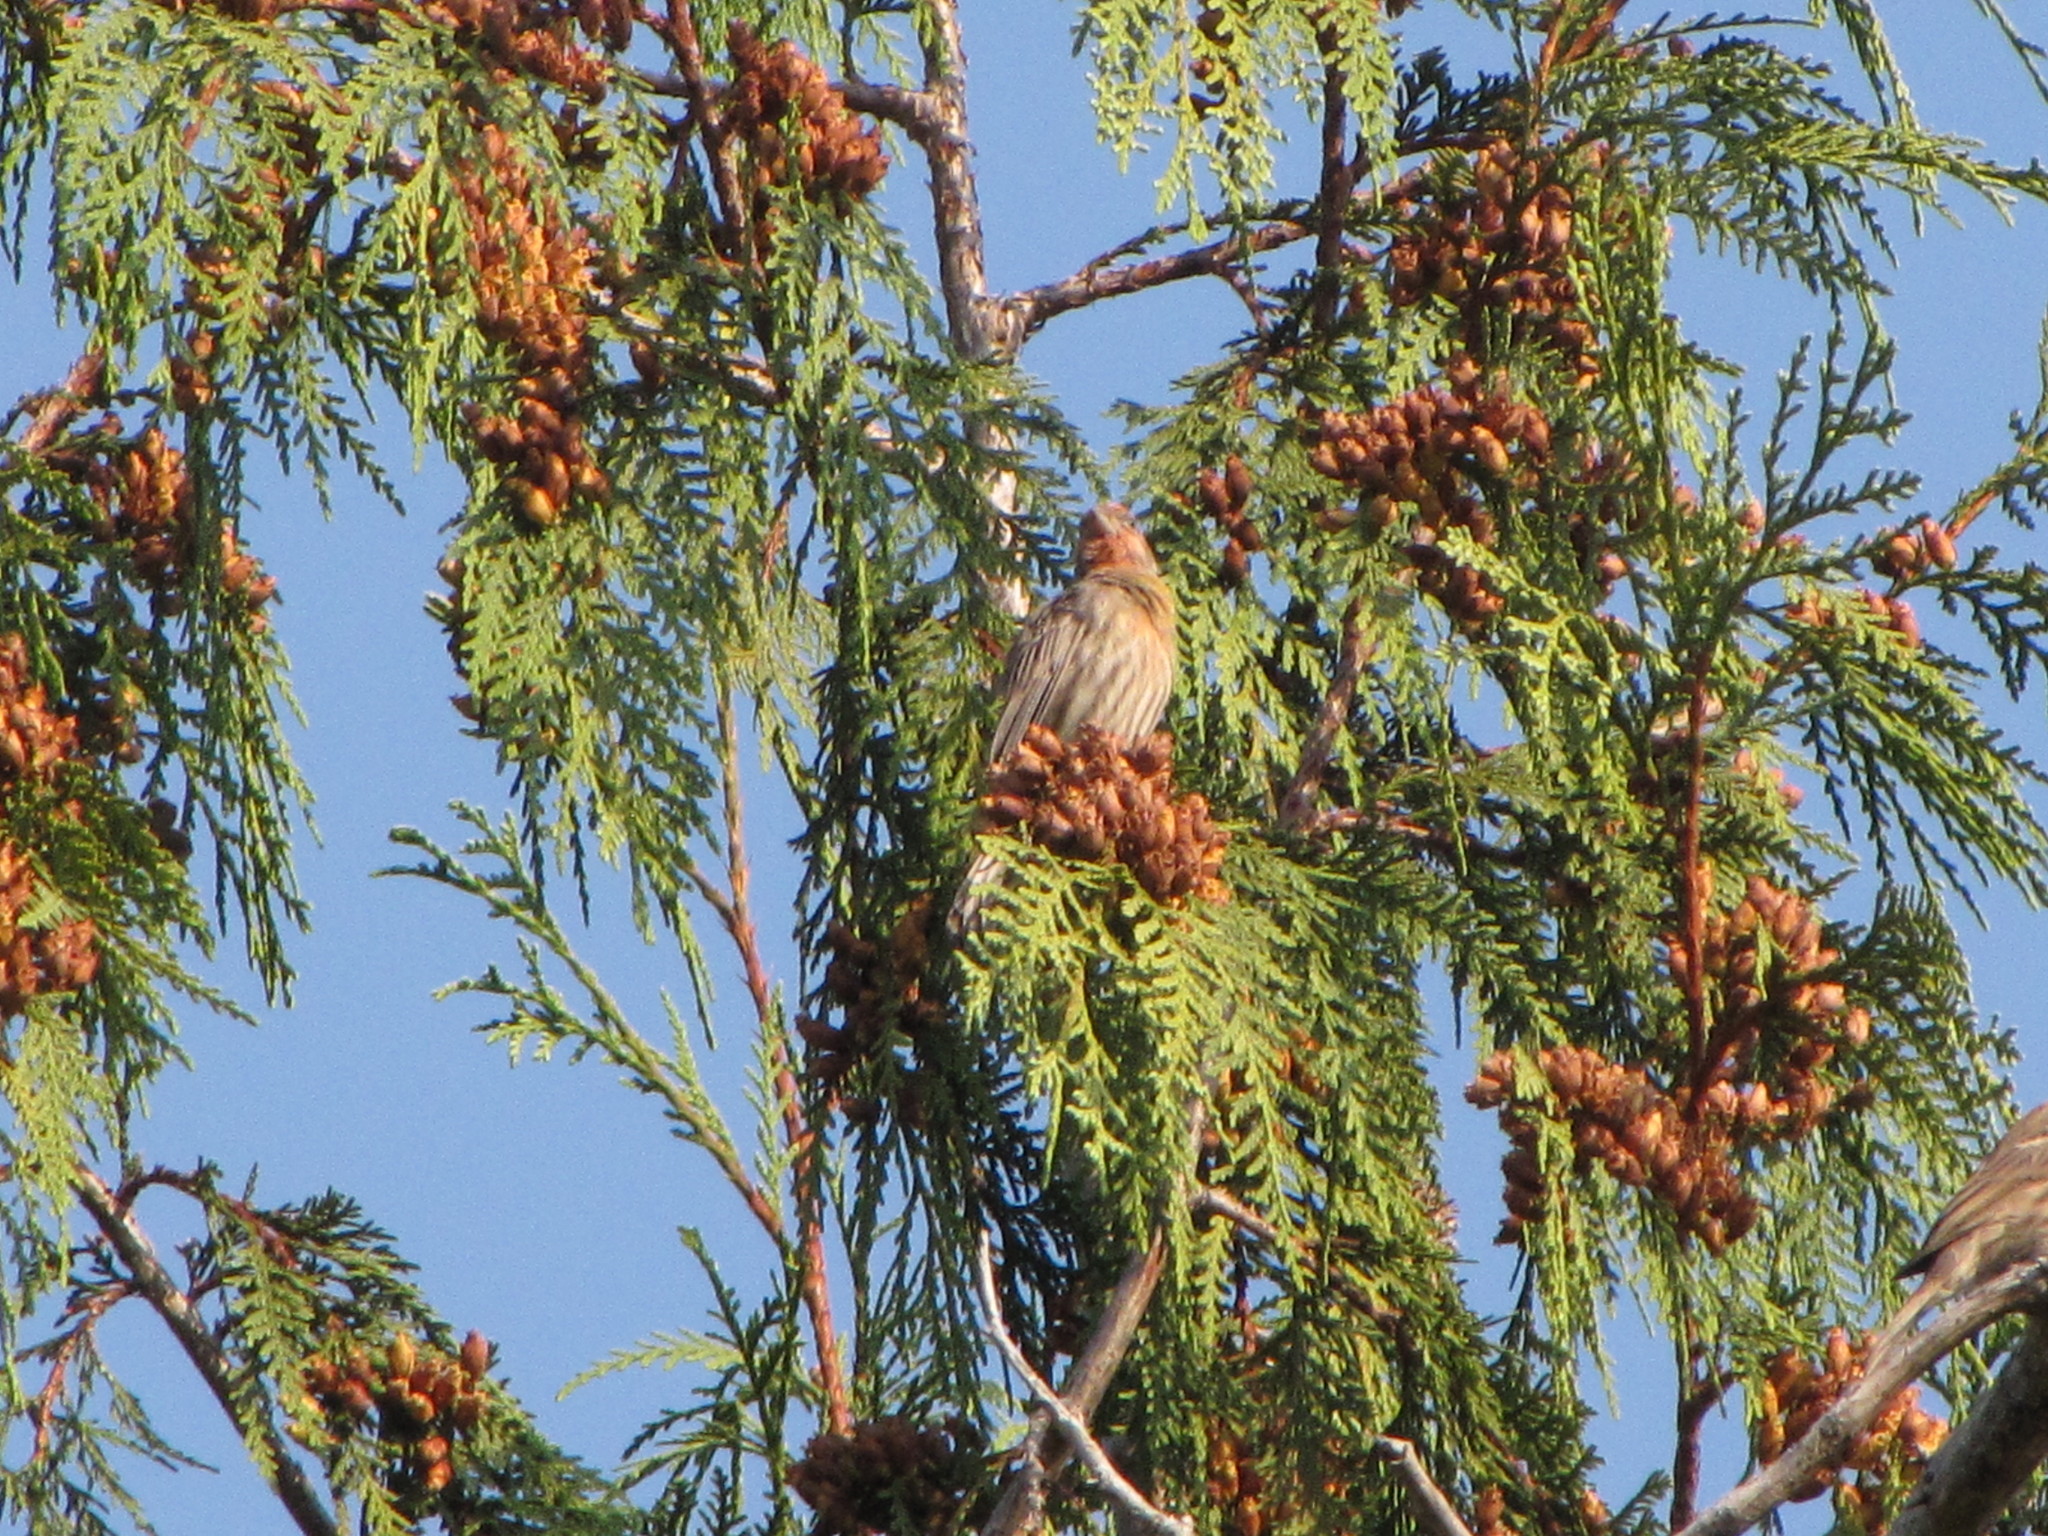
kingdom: Animalia
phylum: Chordata
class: Aves
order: Passeriformes
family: Fringillidae
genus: Haemorhous
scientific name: Haemorhous mexicanus
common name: House finch
